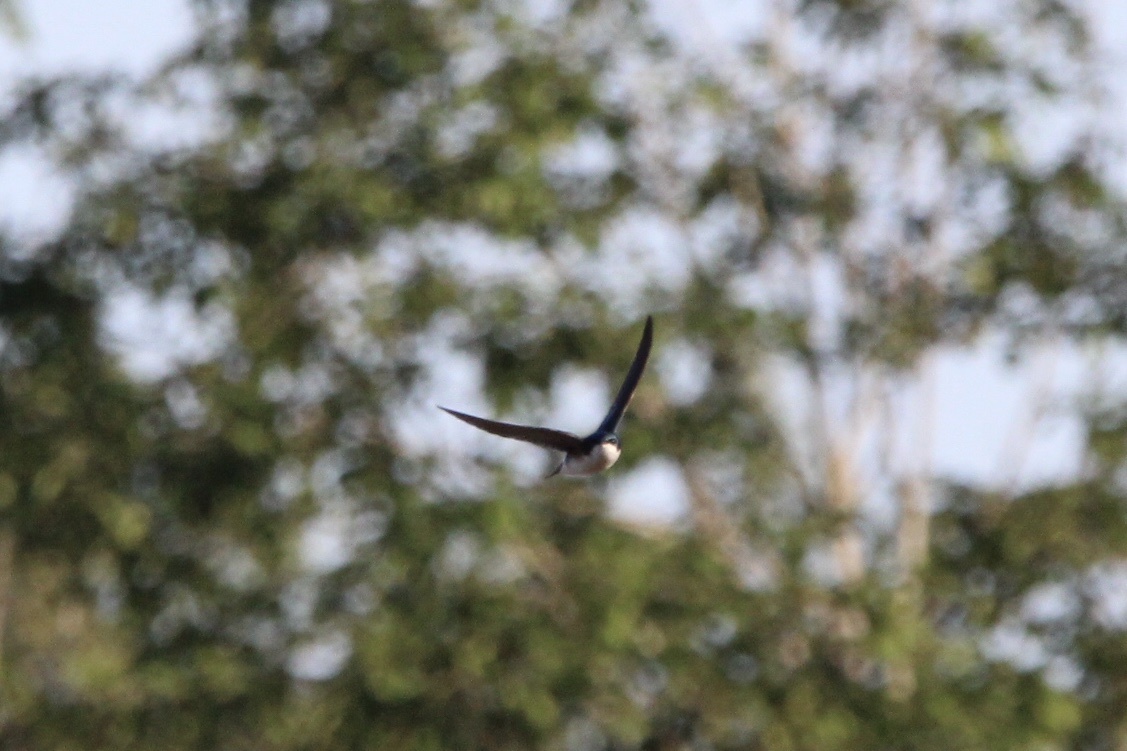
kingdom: Animalia
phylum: Chordata
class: Aves
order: Passeriformes
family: Hirundinidae
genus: Tachycineta
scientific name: Tachycineta bicolor
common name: Tree swallow
